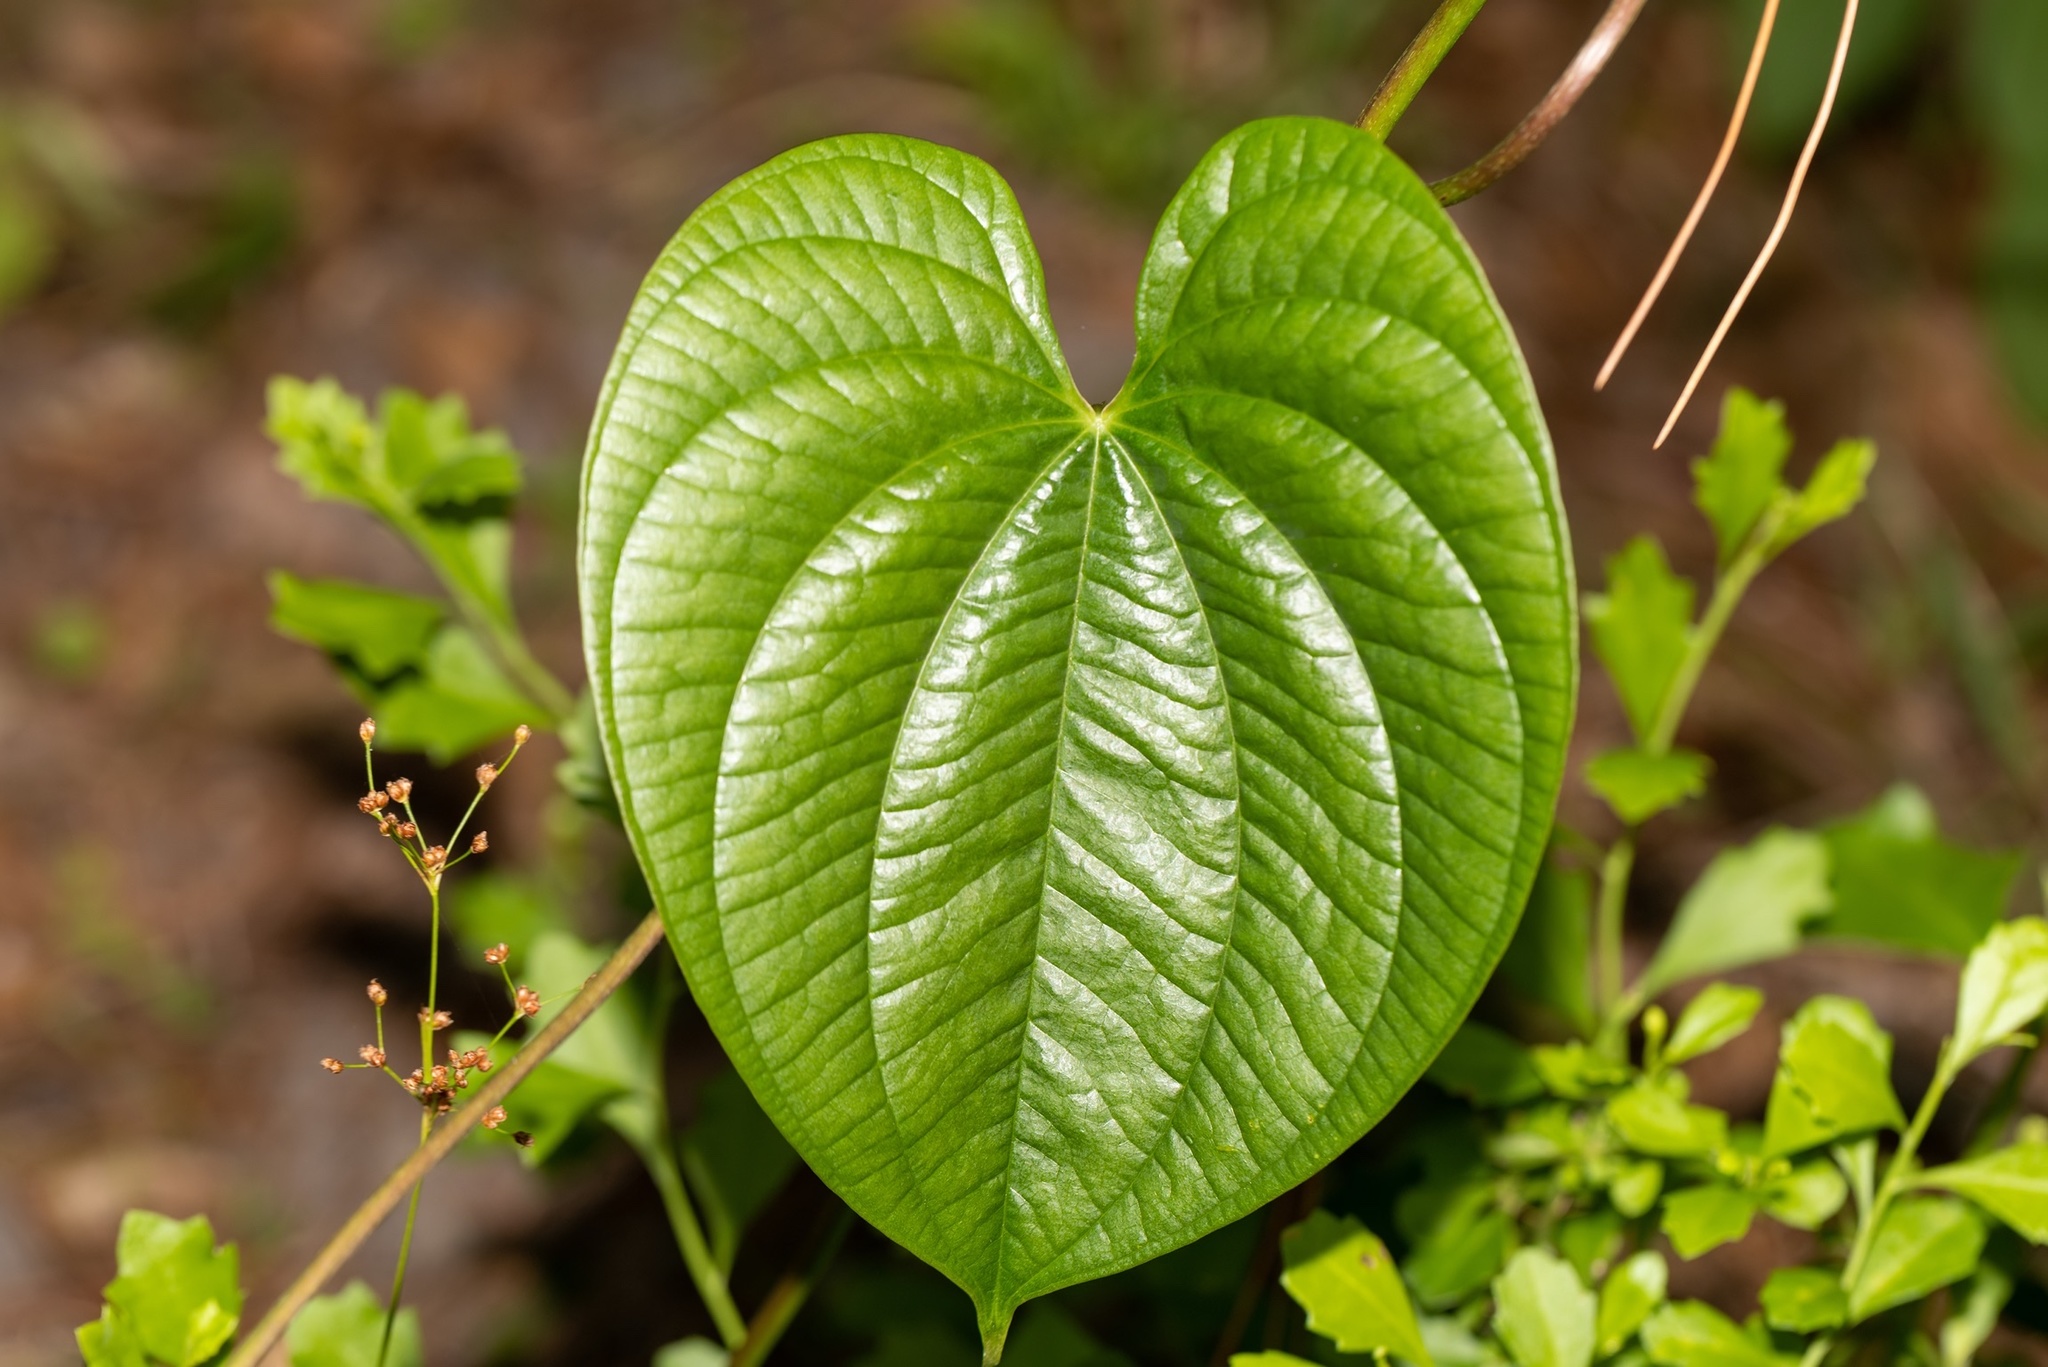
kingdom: Plantae
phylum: Tracheophyta
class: Liliopsida
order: Dioscoreales
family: Dioscoreaceae
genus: Dioscorea
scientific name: Dioscorea bulbifera
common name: Air yam
